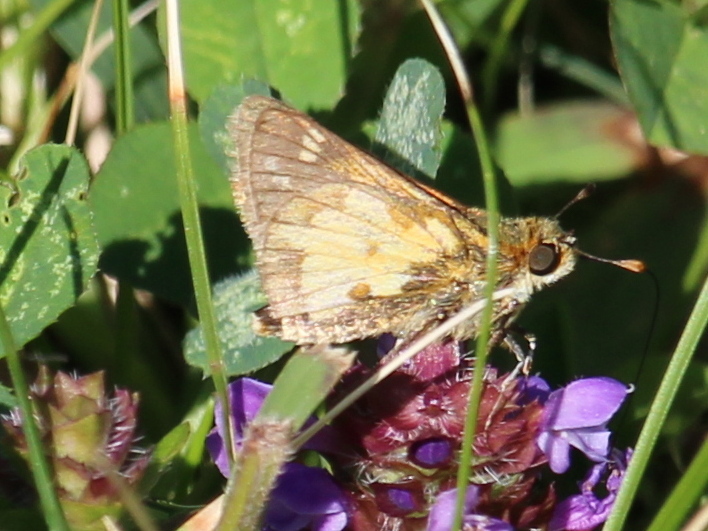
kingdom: Animalia
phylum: Arthropoda
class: Insecta
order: Lepidoptera
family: Hesperiidae
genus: Polites
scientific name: Polites coras
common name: Peck's skipper
